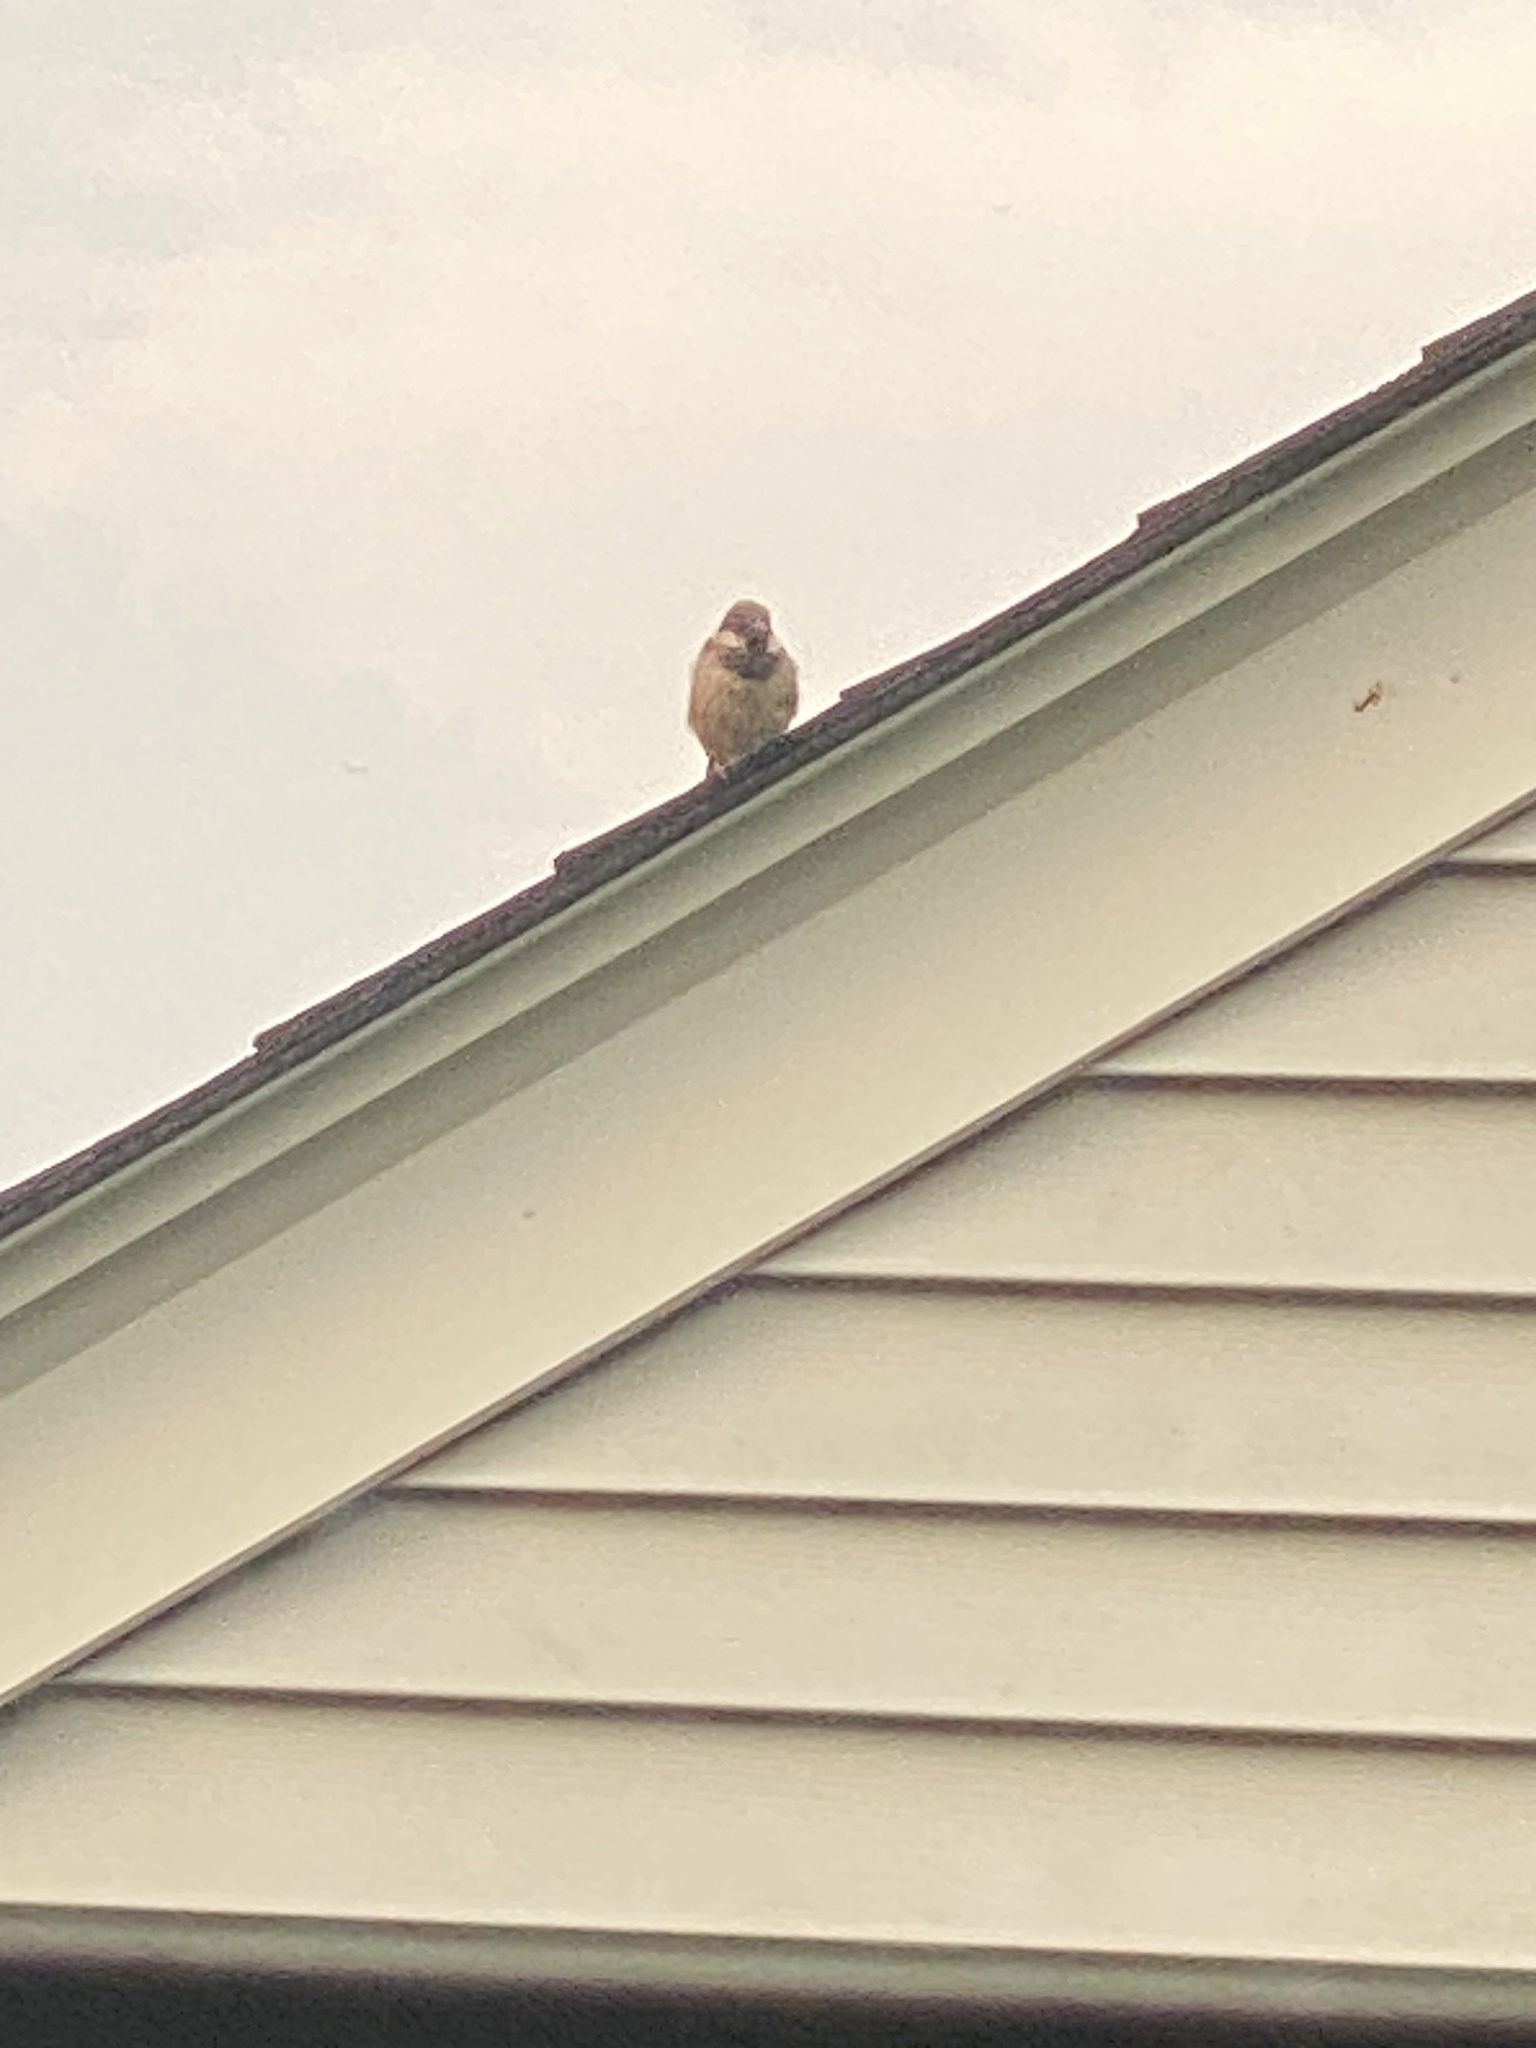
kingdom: Animalia
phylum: Chordata
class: Aves
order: Passeriformes
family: Passeridae
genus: Passer
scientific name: Passer domesticus
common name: House sparrow
